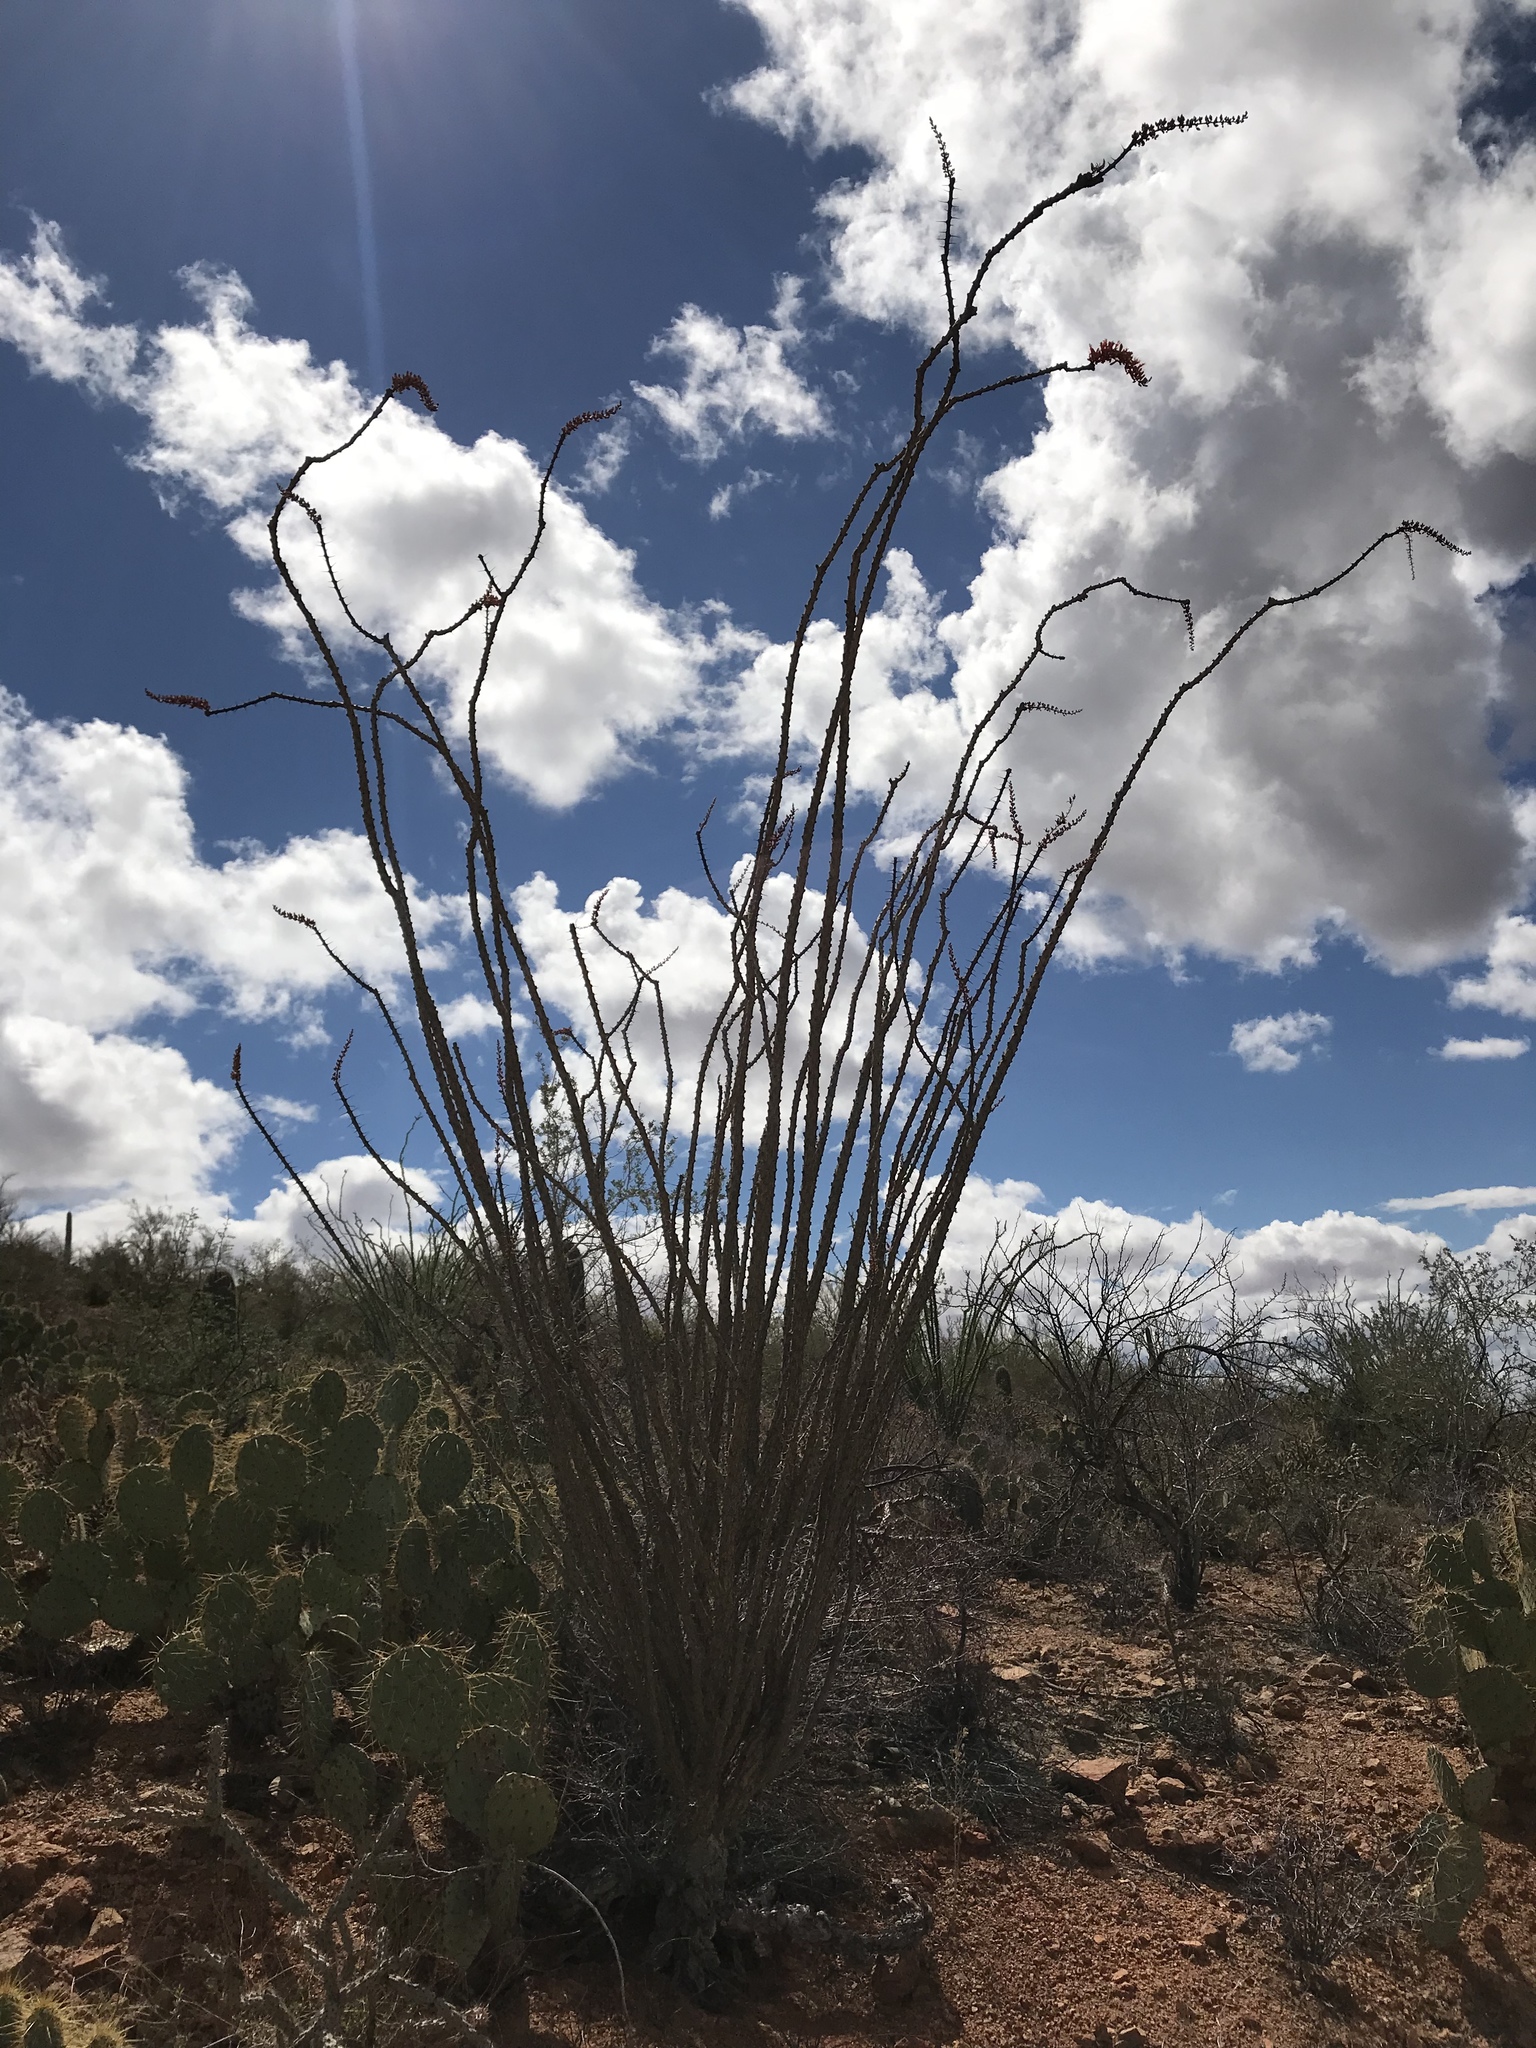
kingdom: Plantae
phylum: Tracheophyta
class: Magnoliopsida
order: Ericales
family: Fouquieriaceae
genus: Fouquieria
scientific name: Fouquieria splendens
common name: Vine-cactus
